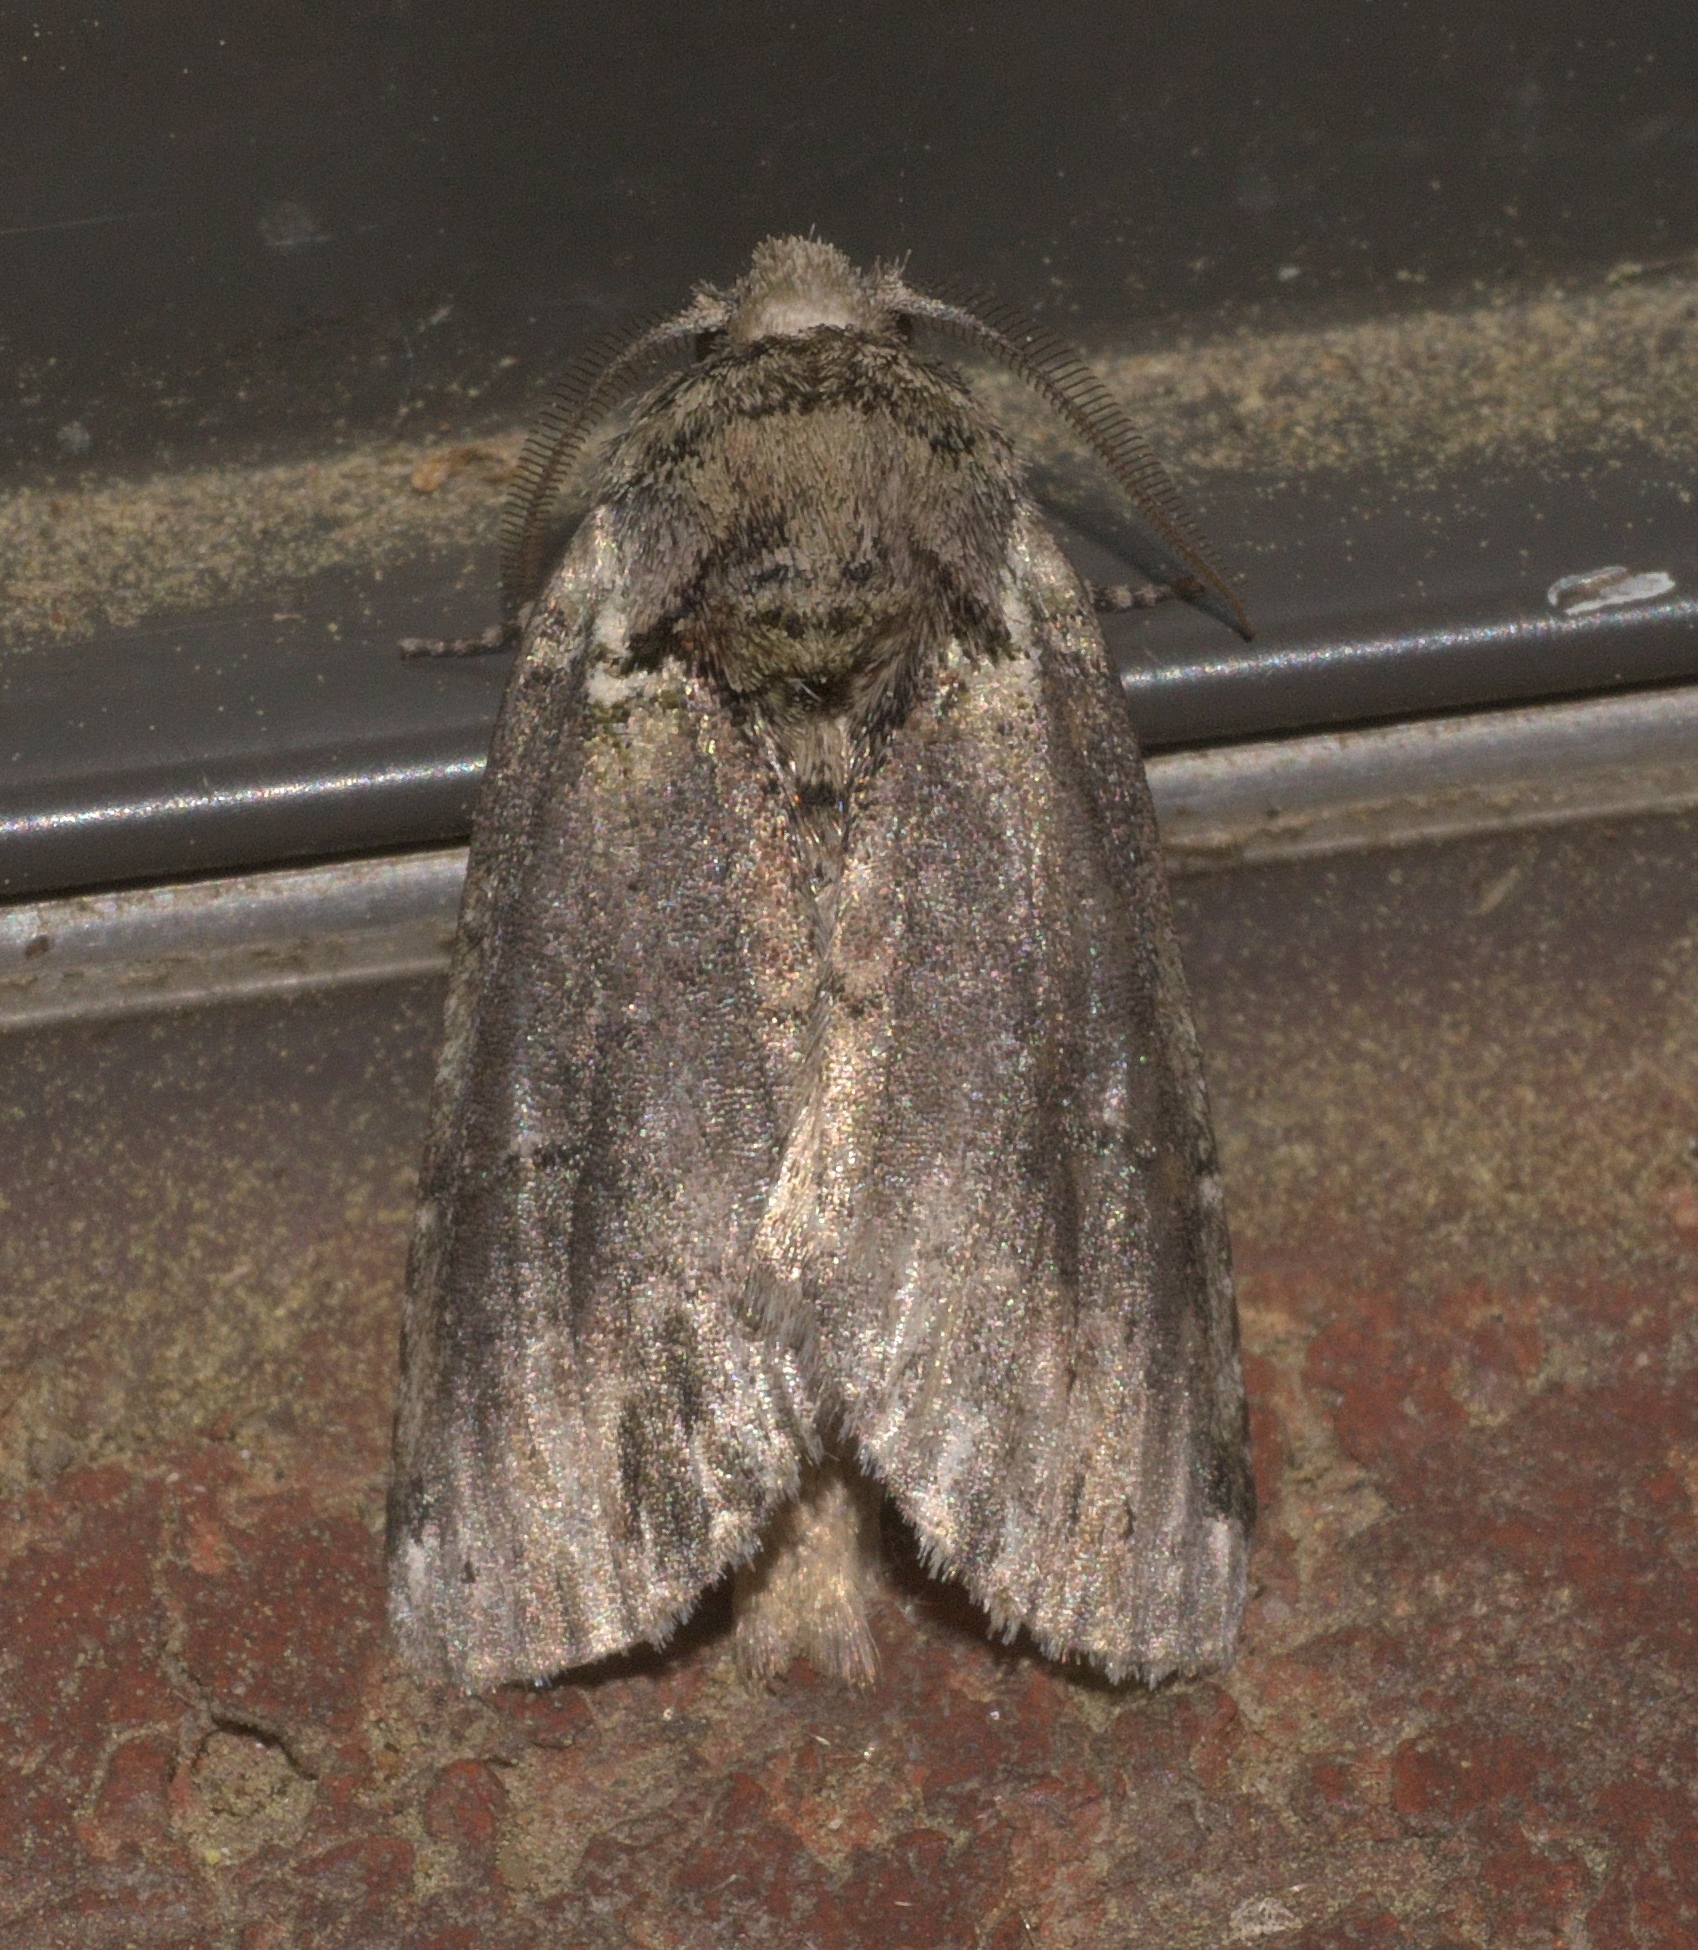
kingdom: Animalia
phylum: Arthropoda
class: Insecta
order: Lepidoptera
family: Notodontidae
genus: Schizura
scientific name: Schizura
